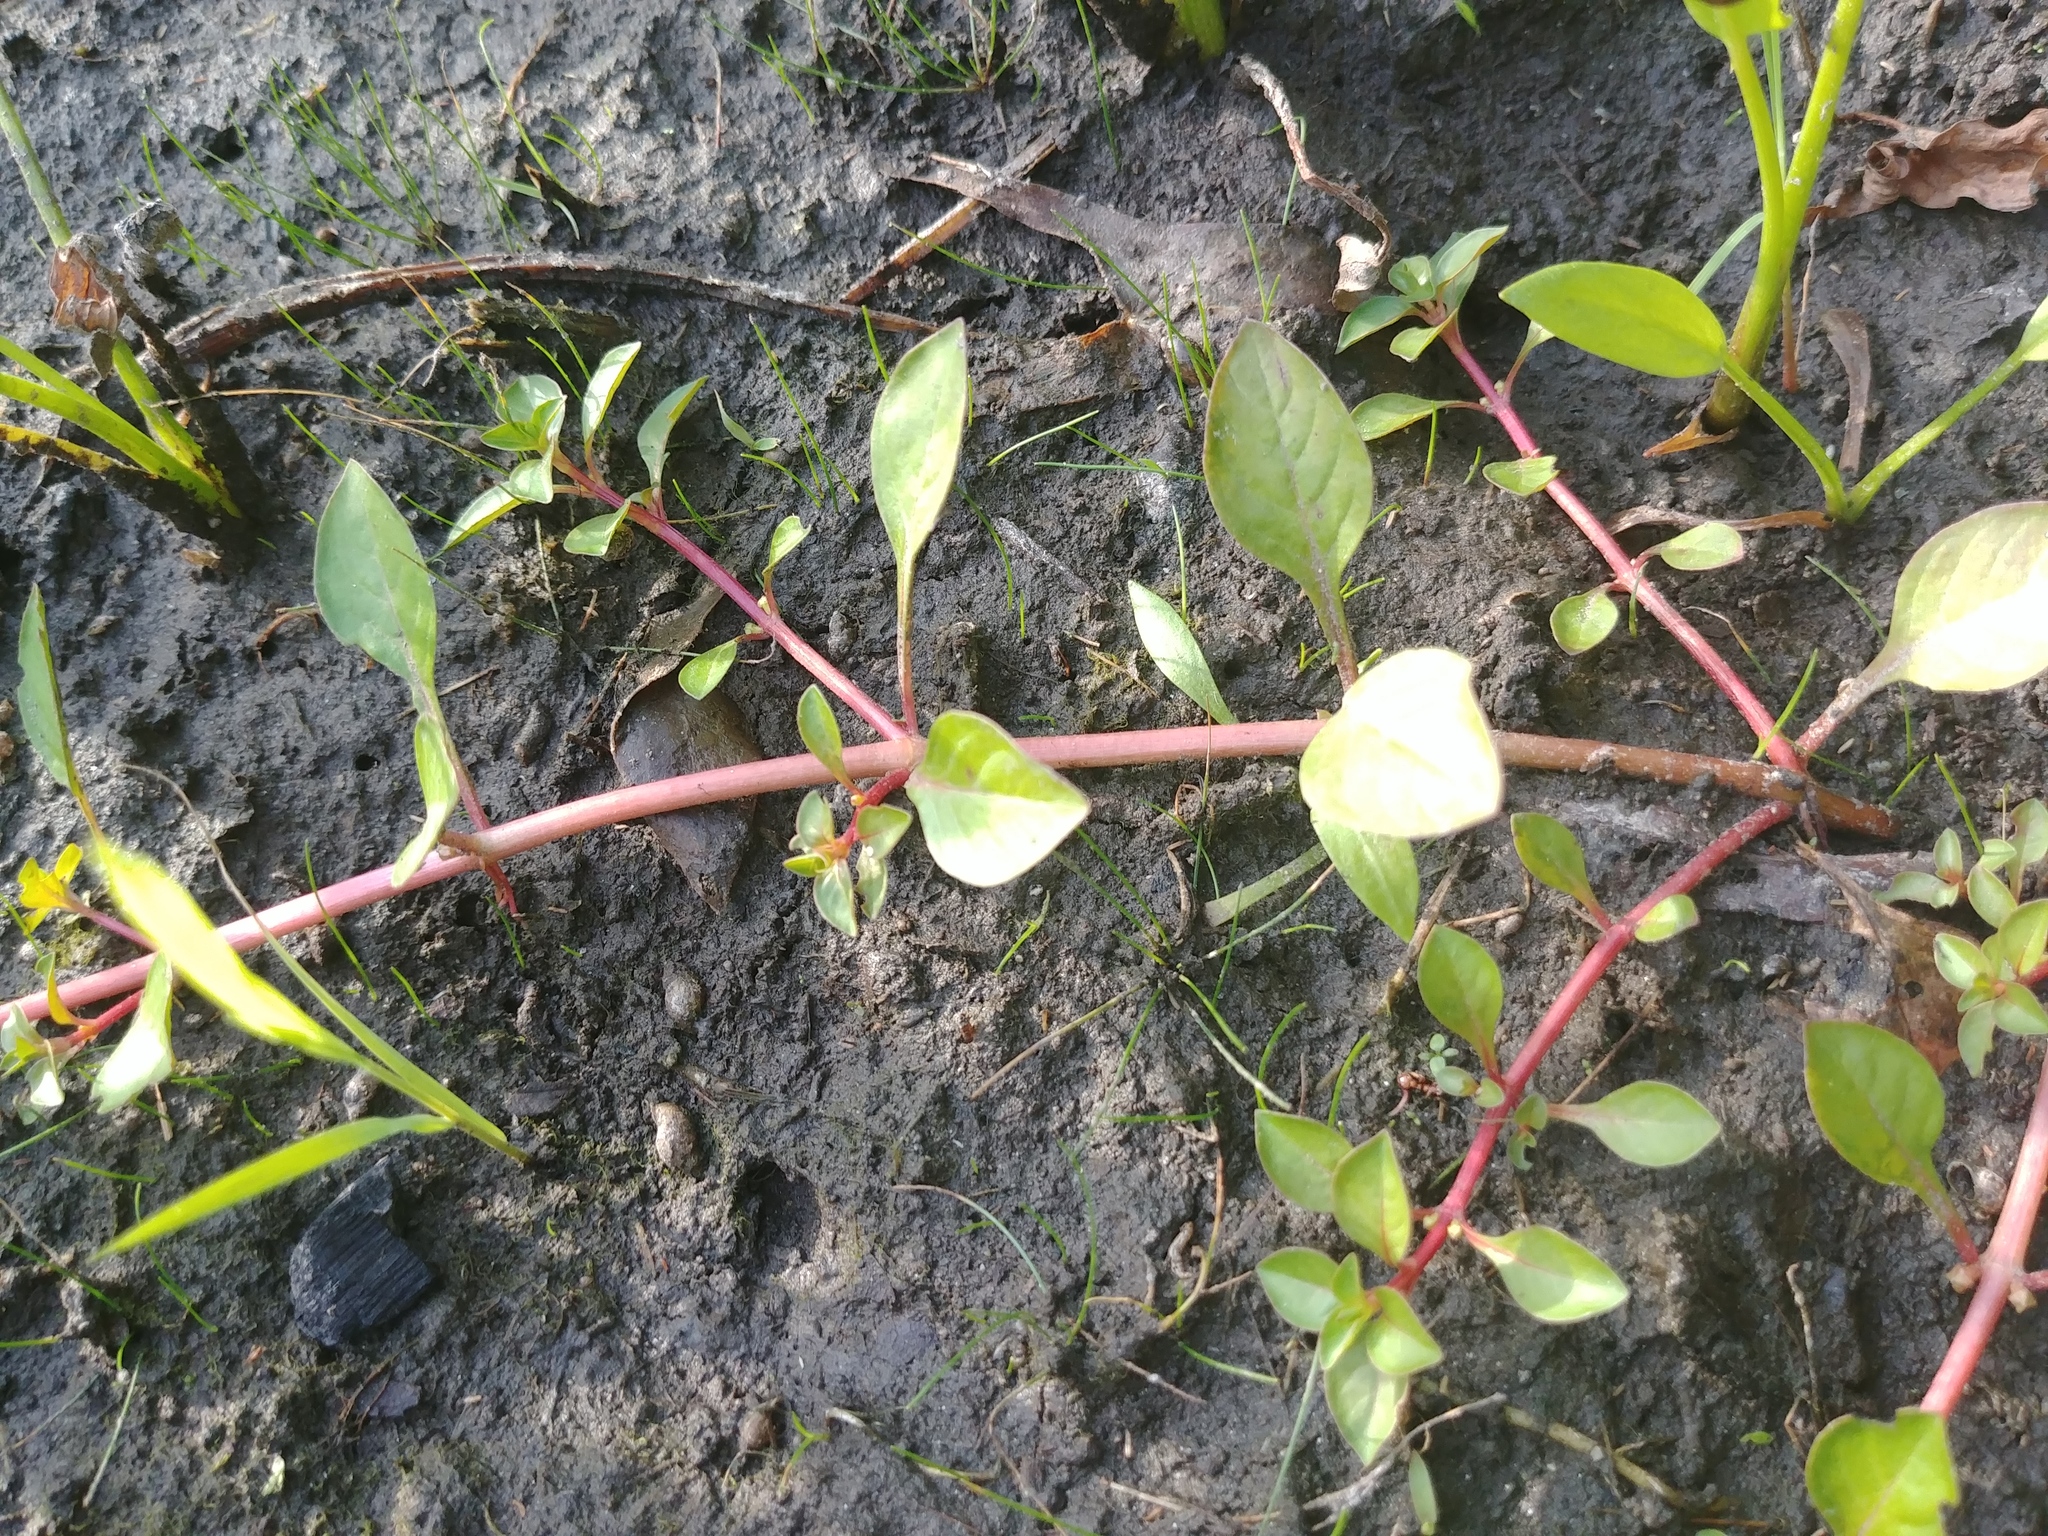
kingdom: Plantae
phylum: Tracheophyta
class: Magnoliopsida
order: Myrtales
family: Onagraceae
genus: Ludwigia
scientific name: Ludwigia palustris
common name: Hampshire-purslane
